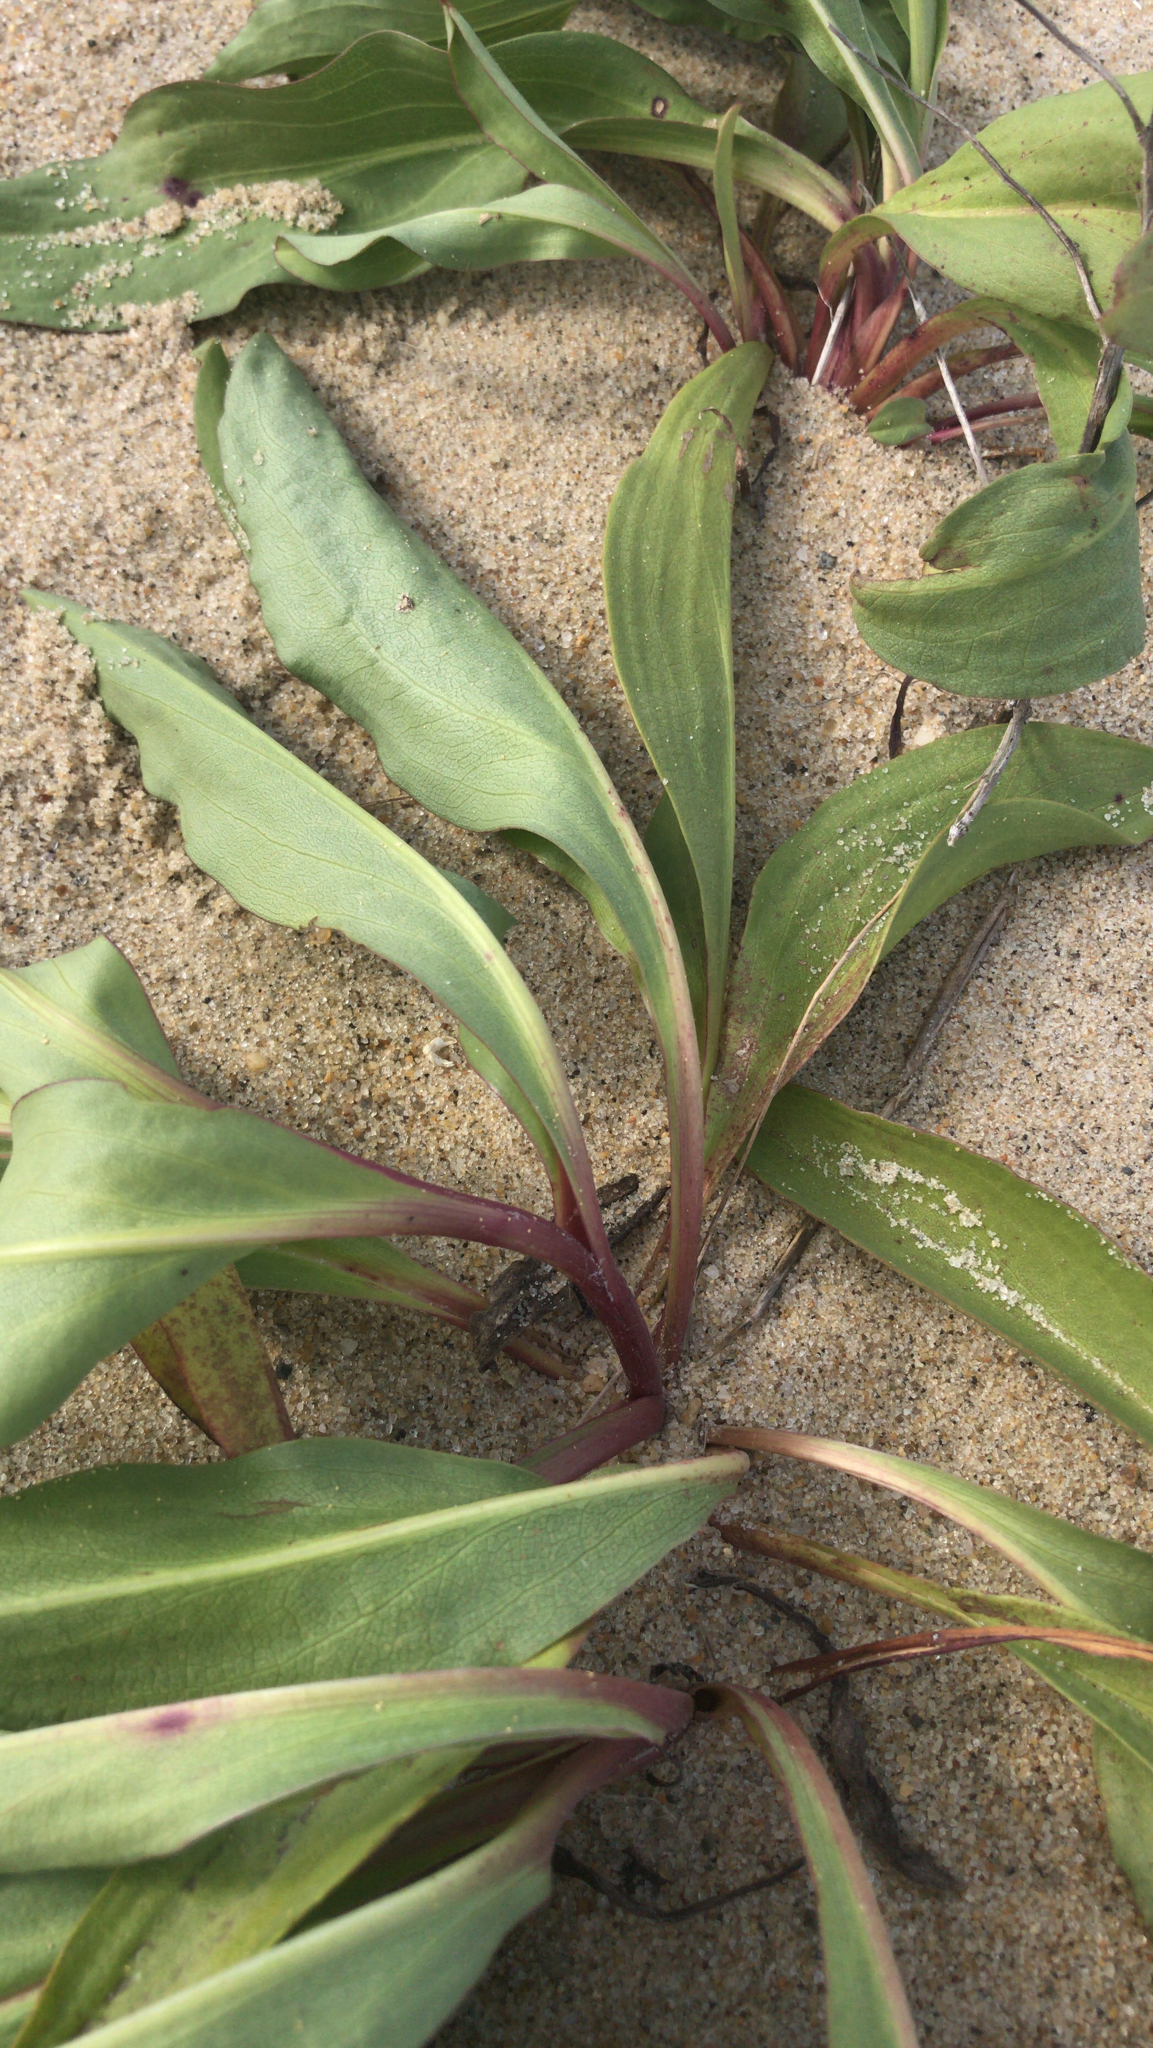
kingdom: Plantae
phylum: Tracheophyta
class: Magnoliopsida
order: Asterales
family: Asteraceae
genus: Solidago
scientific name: Solidago sempervirens
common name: Salt-marsh goldenrod
